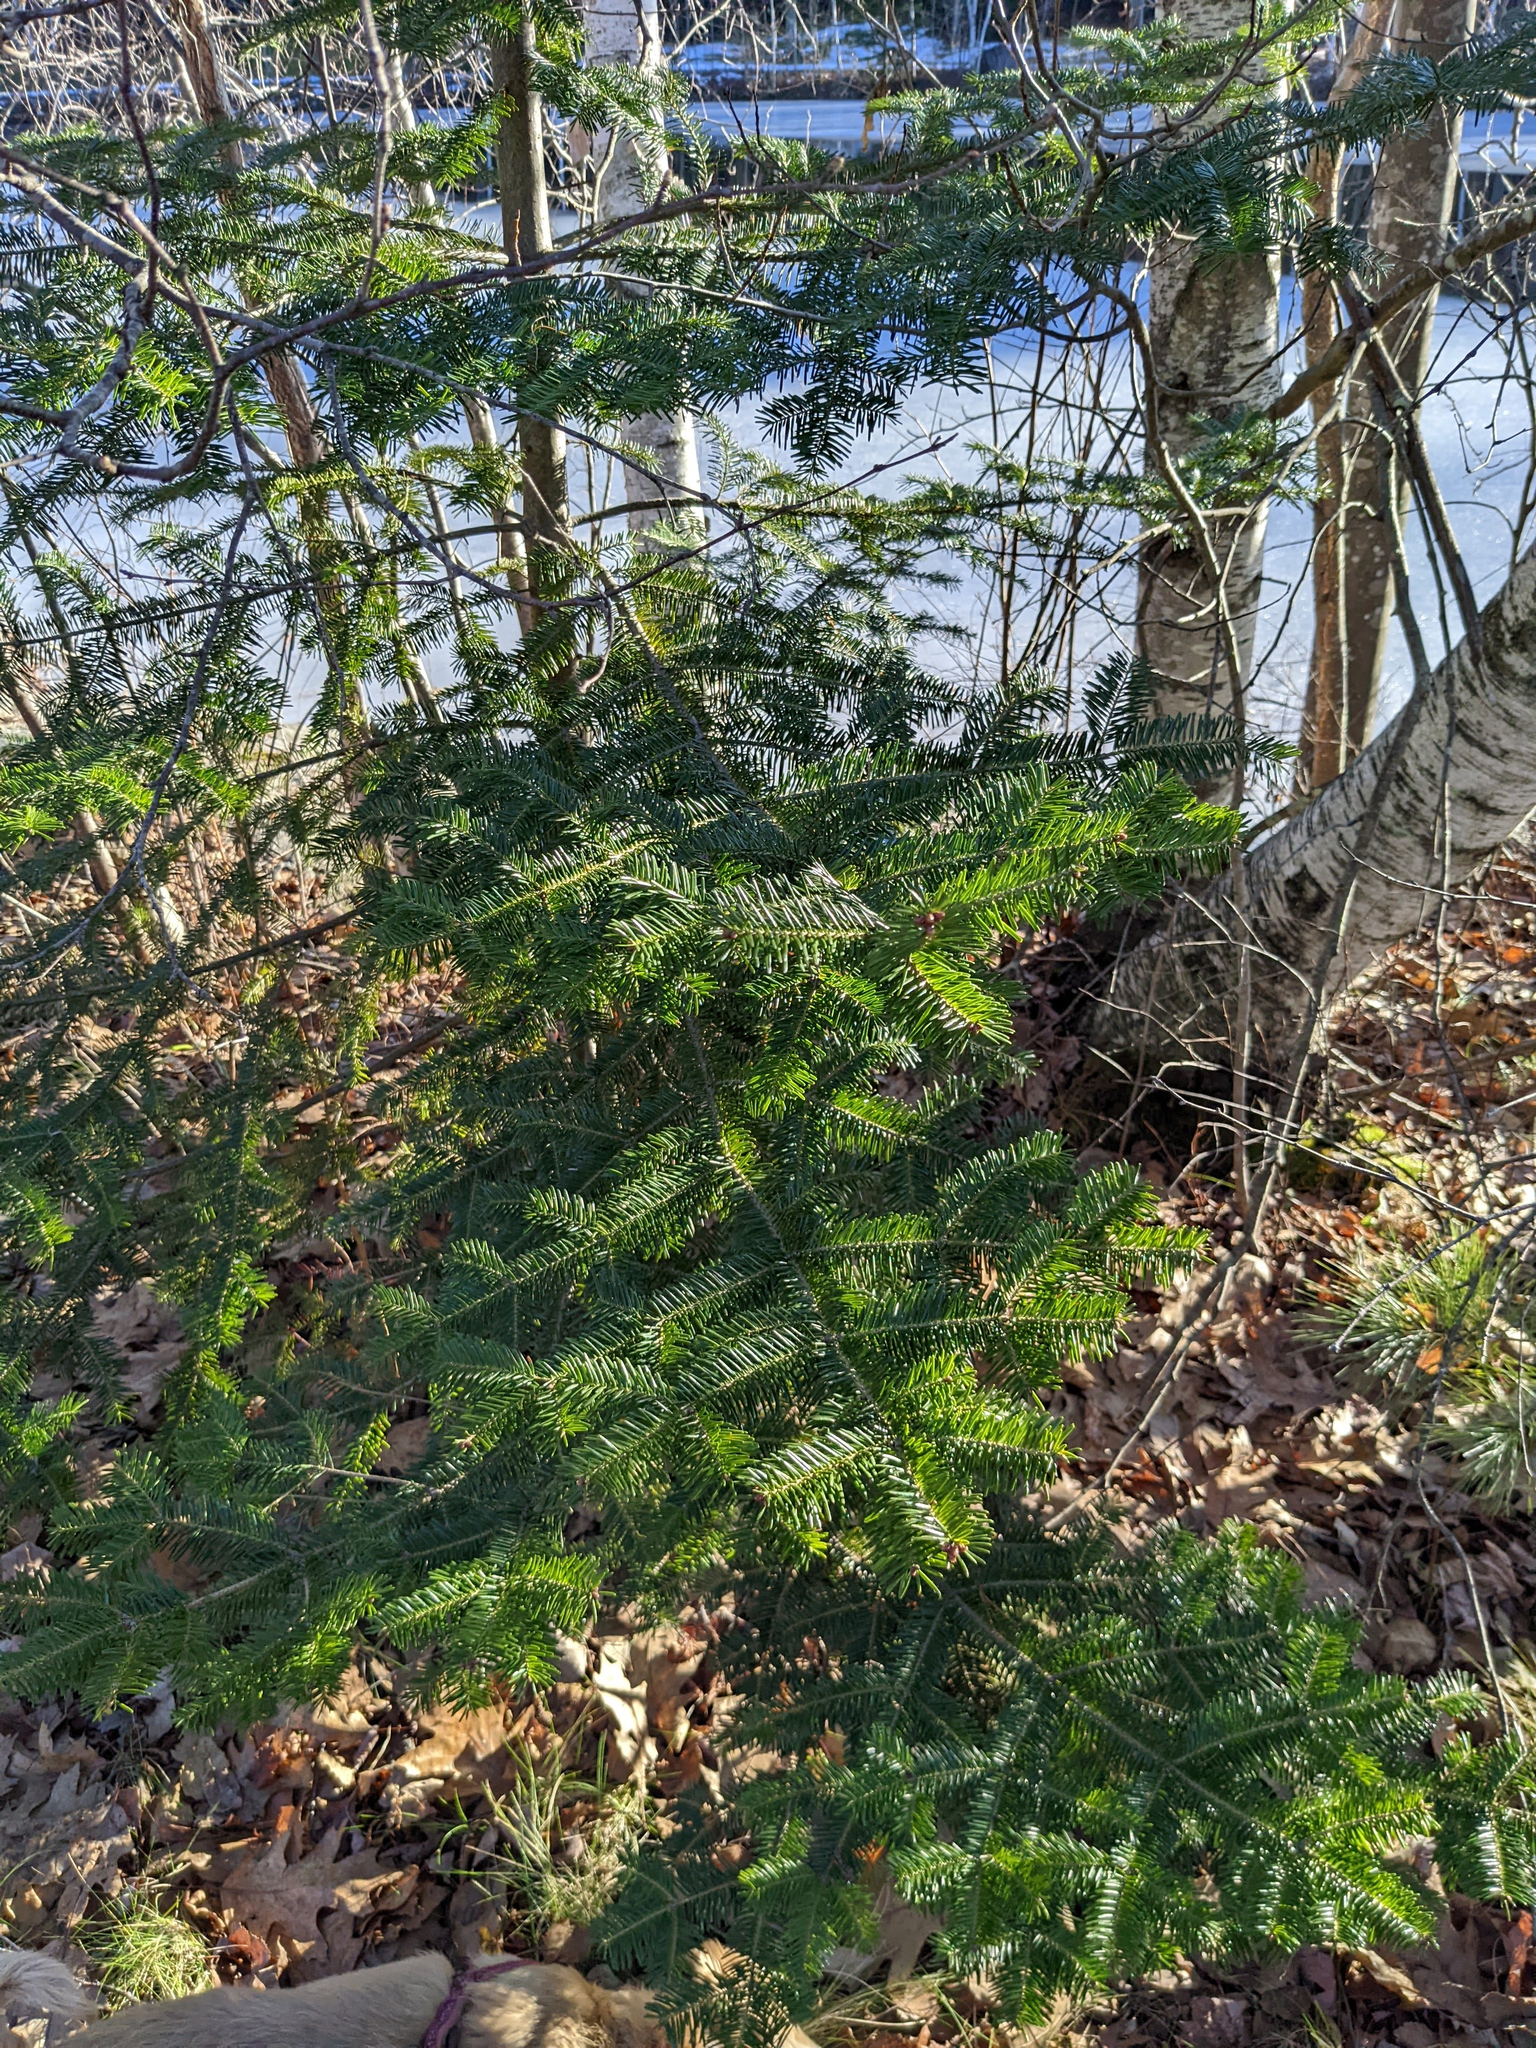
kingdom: Plantae
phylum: Tracheophyta
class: Pinopsida
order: Pinales
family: Pinaceae
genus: Abies
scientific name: Abies balsamea
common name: Balsam fir
